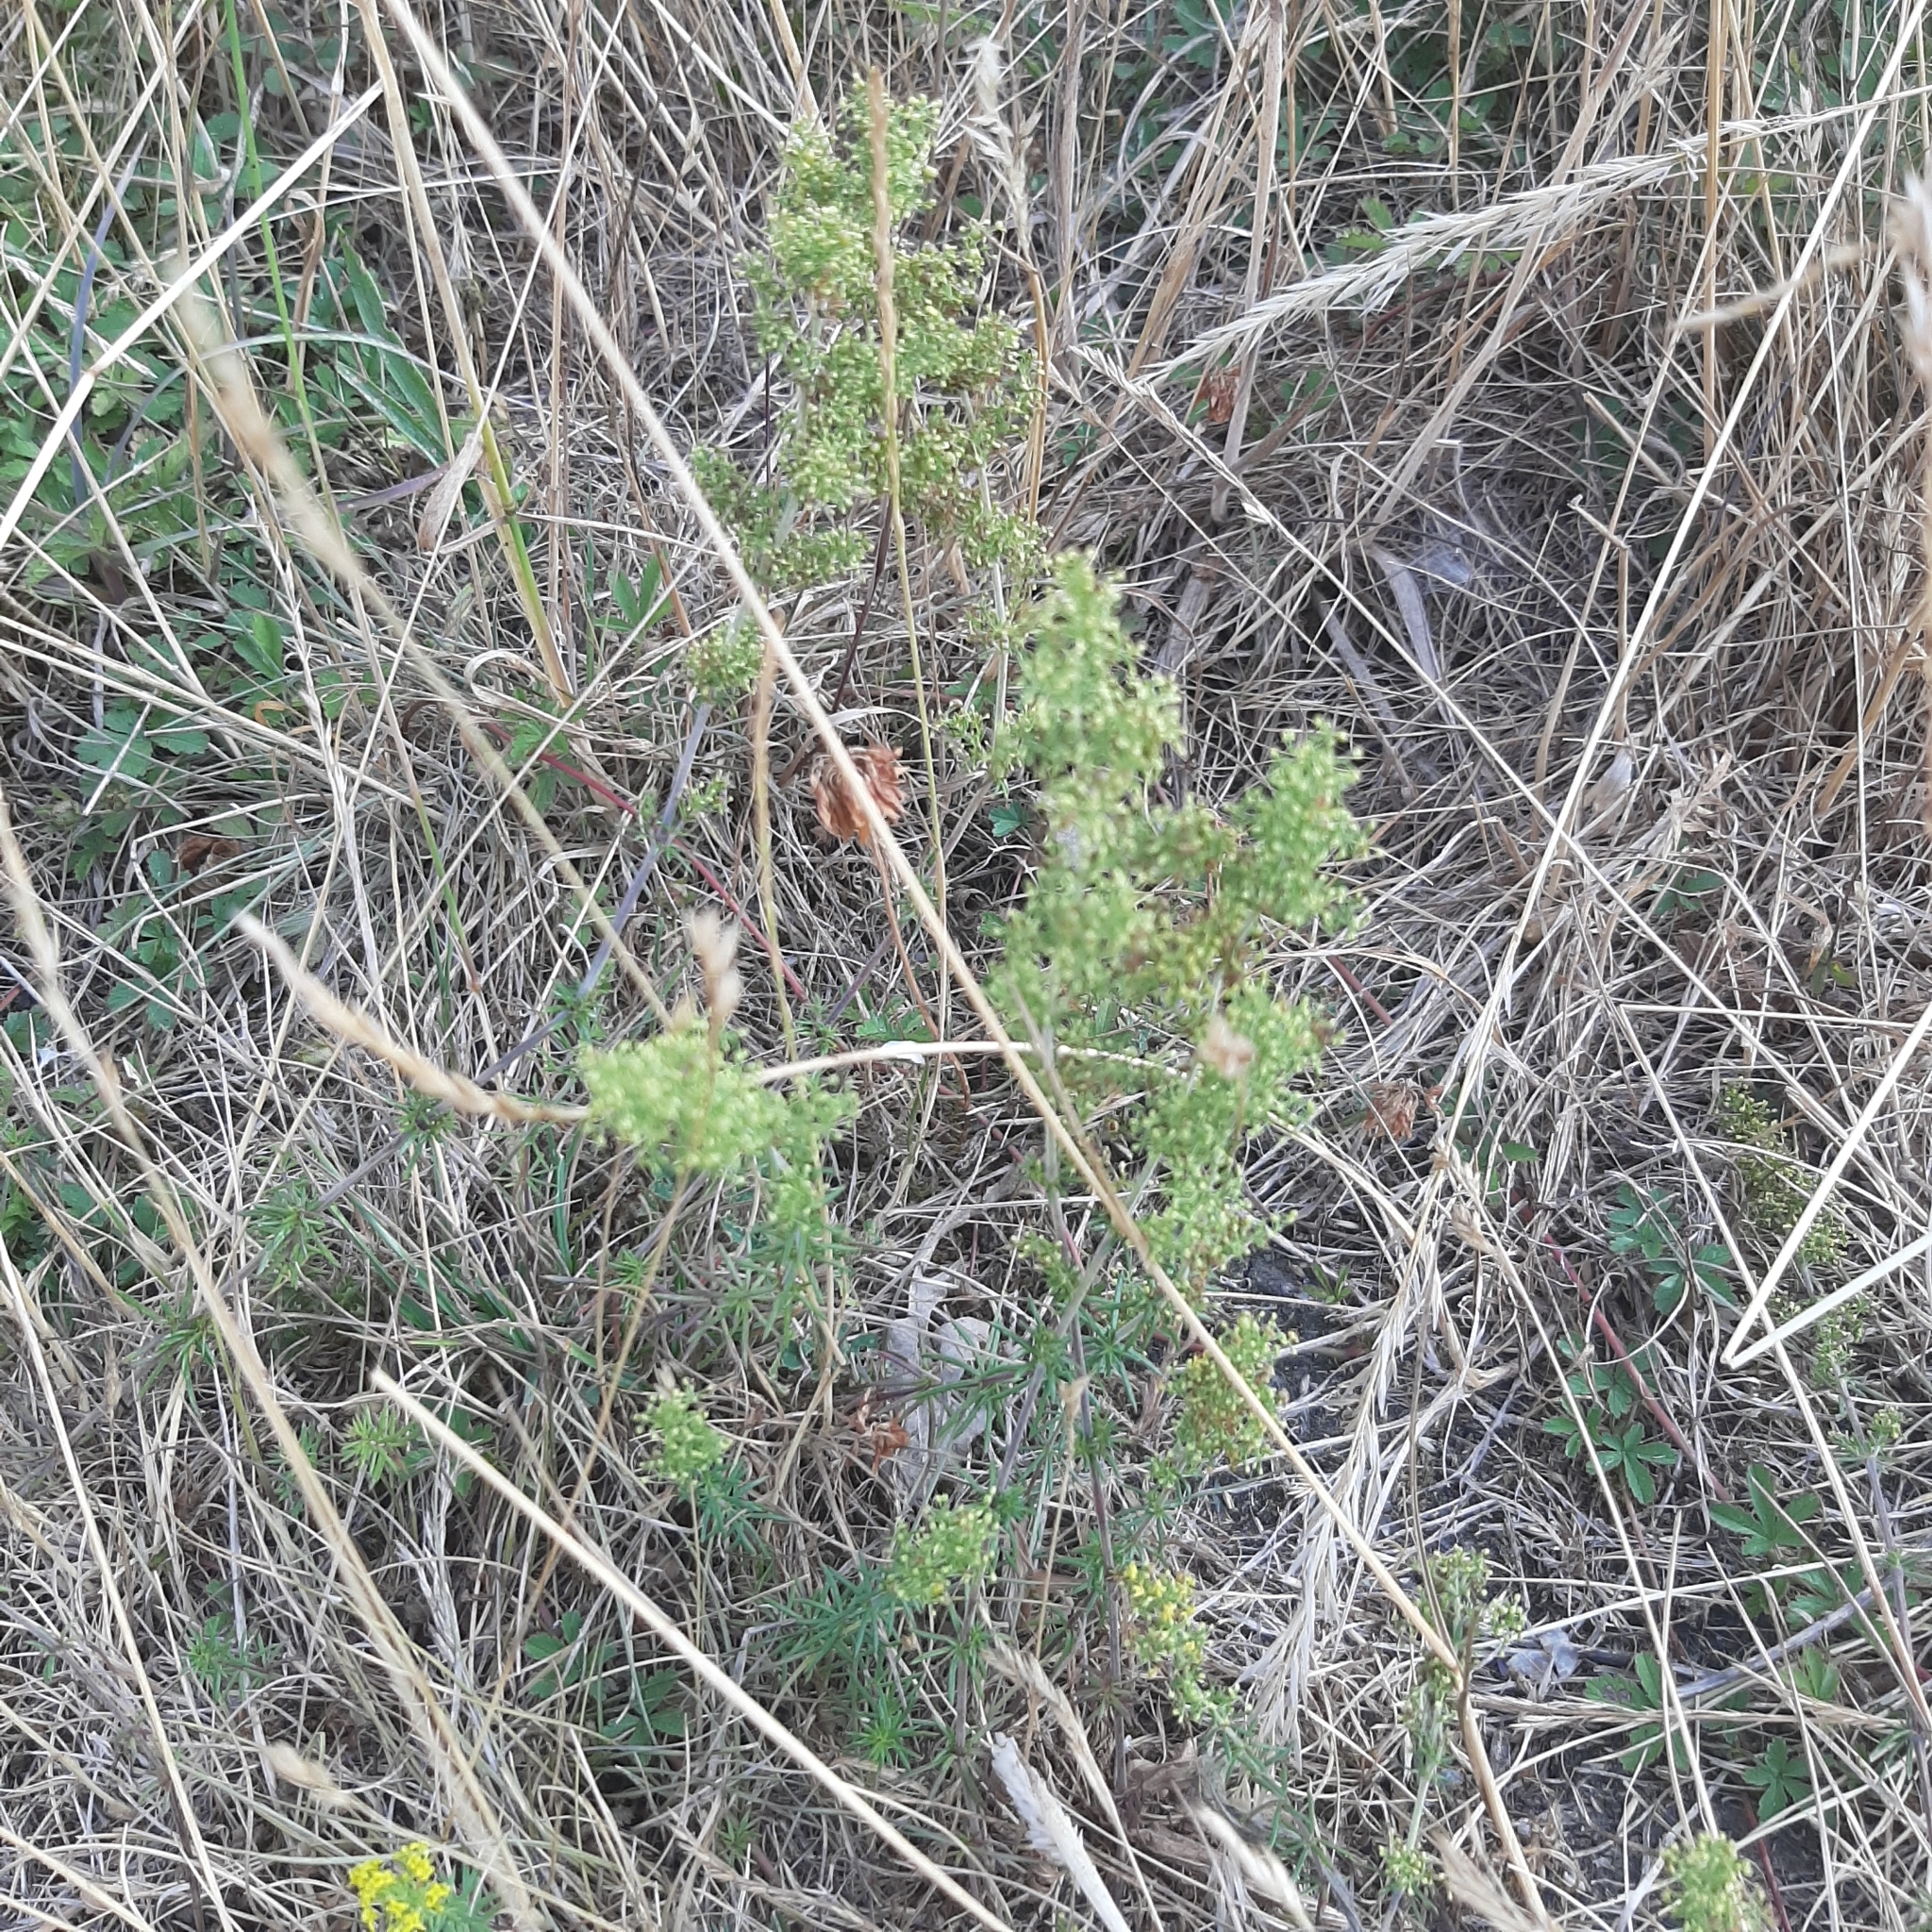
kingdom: Plantae
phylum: Tracheophyta
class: Magnoliopsida
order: Gentianales
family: Rubiaceae
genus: Galium
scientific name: Galium verum
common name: Lady's bedstraw
